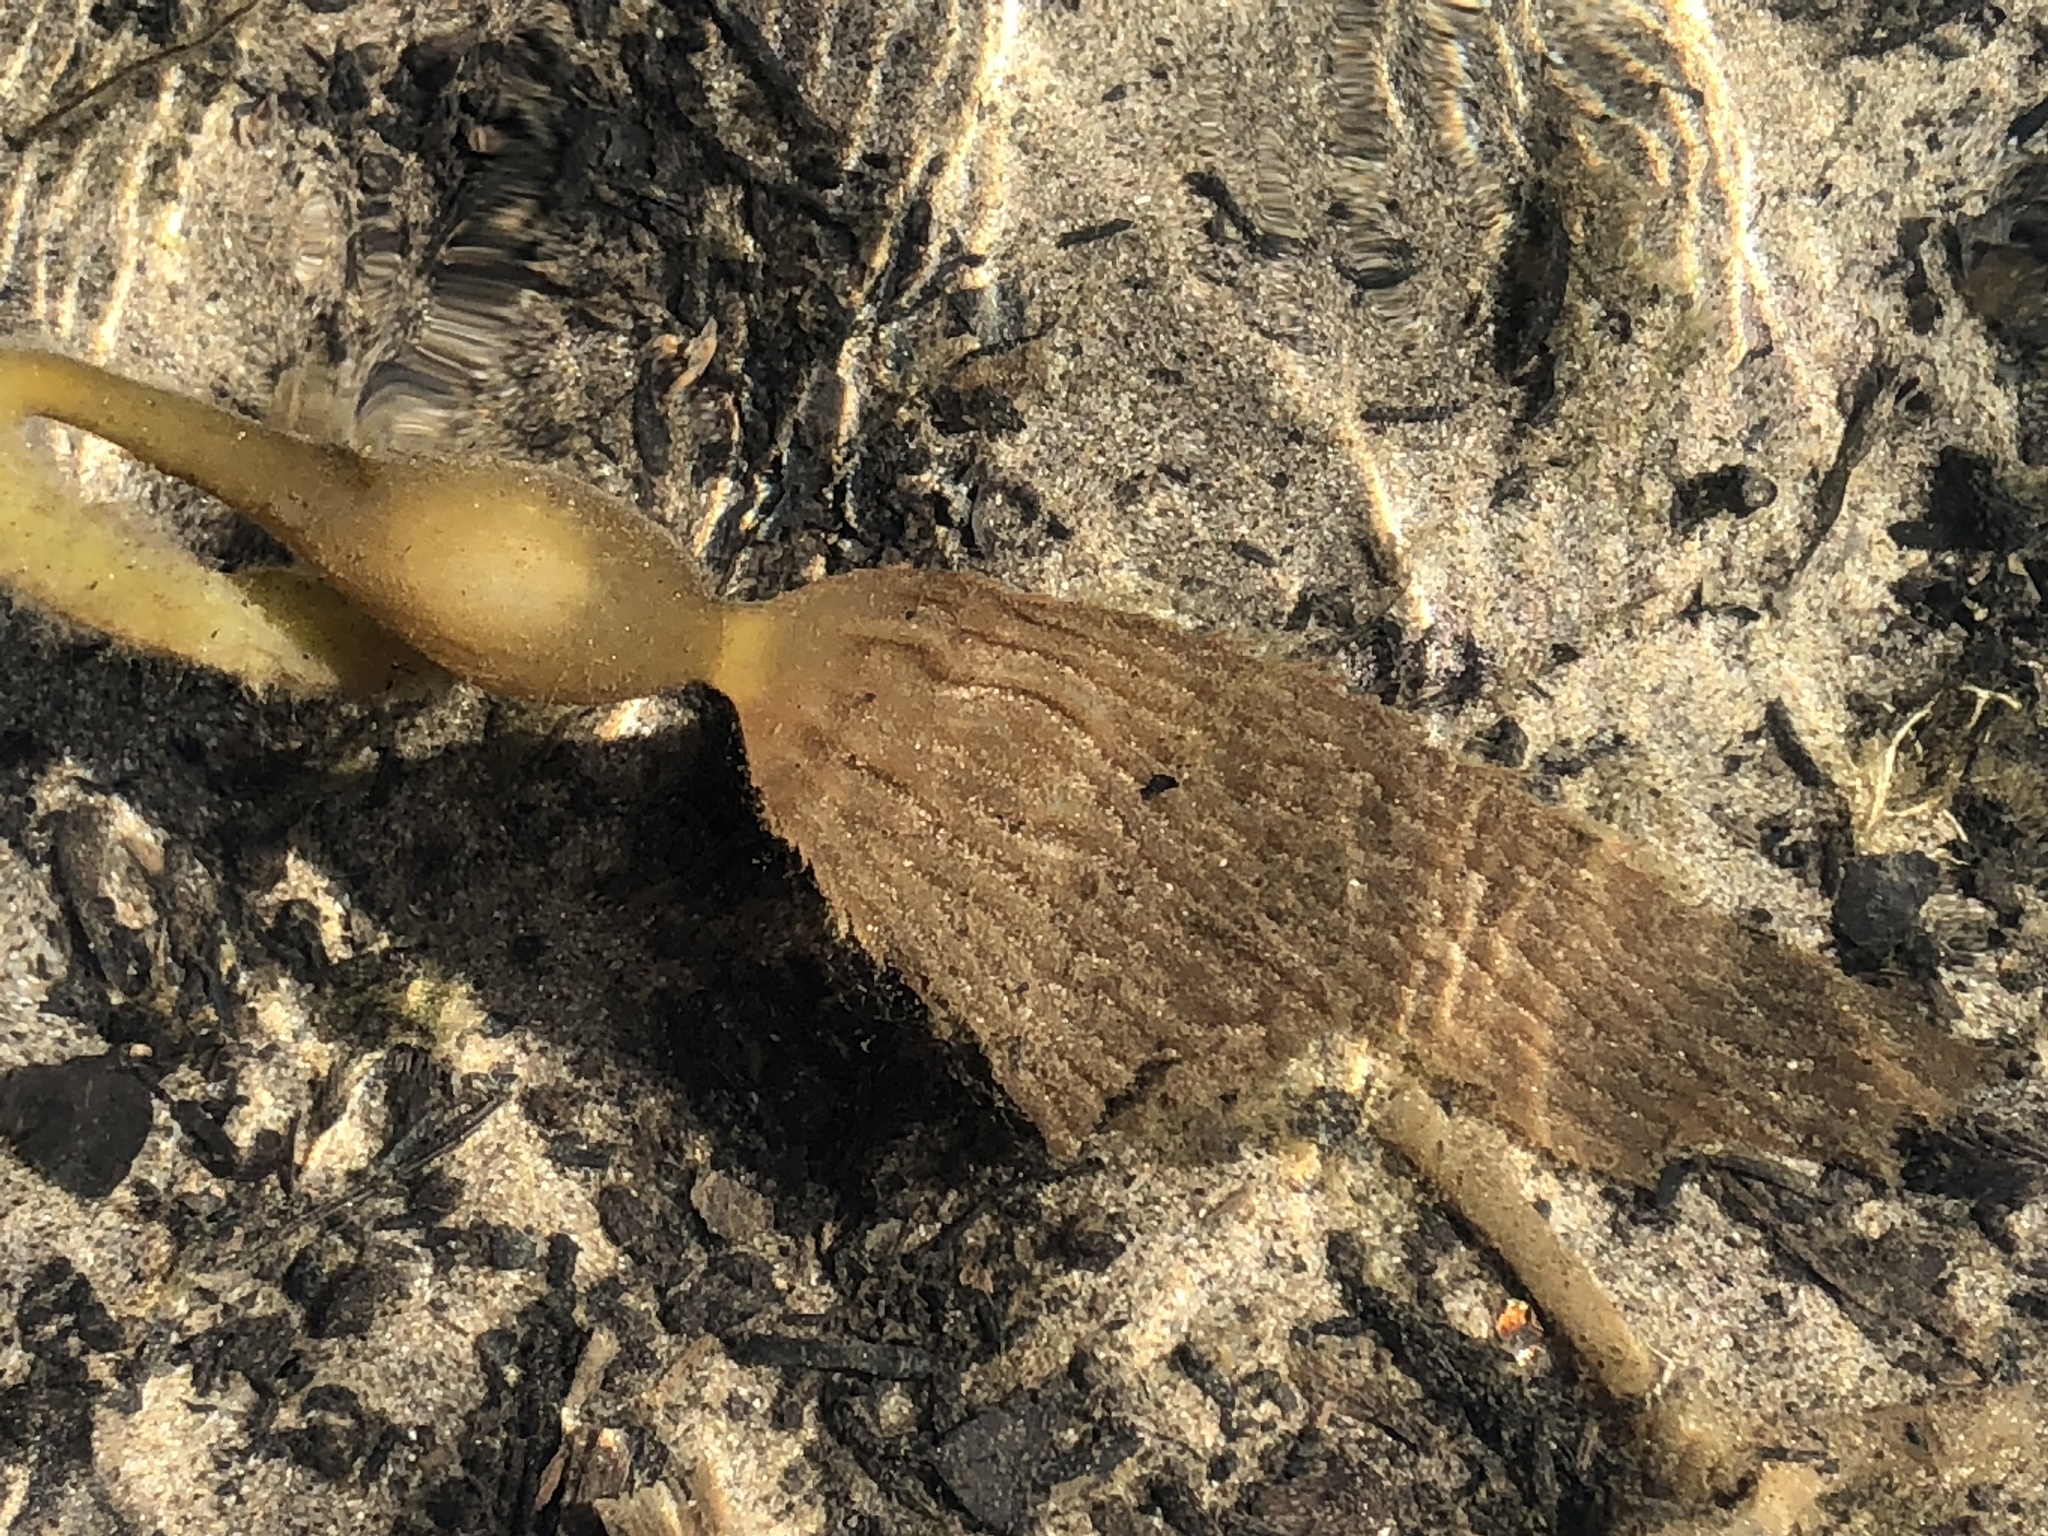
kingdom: Chromista
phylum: Ochrophyta
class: Phaeophyceae
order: Laminariales
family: Laminariaceae
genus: Macrocystis
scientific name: Macrocystis pyrifera
